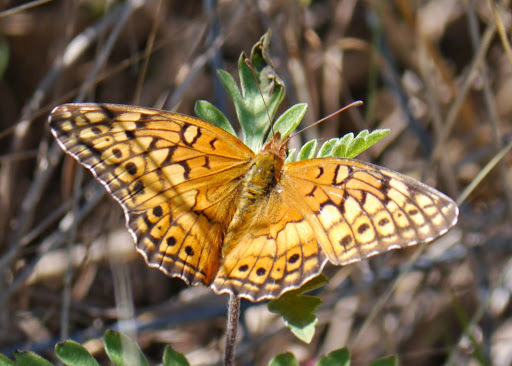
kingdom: Animalia
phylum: Arthropoda
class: Insecta
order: Lepidoptera
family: Nymphalidae
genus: Euptoieta
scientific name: Euptoieta claudia
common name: Variegated fritillary
